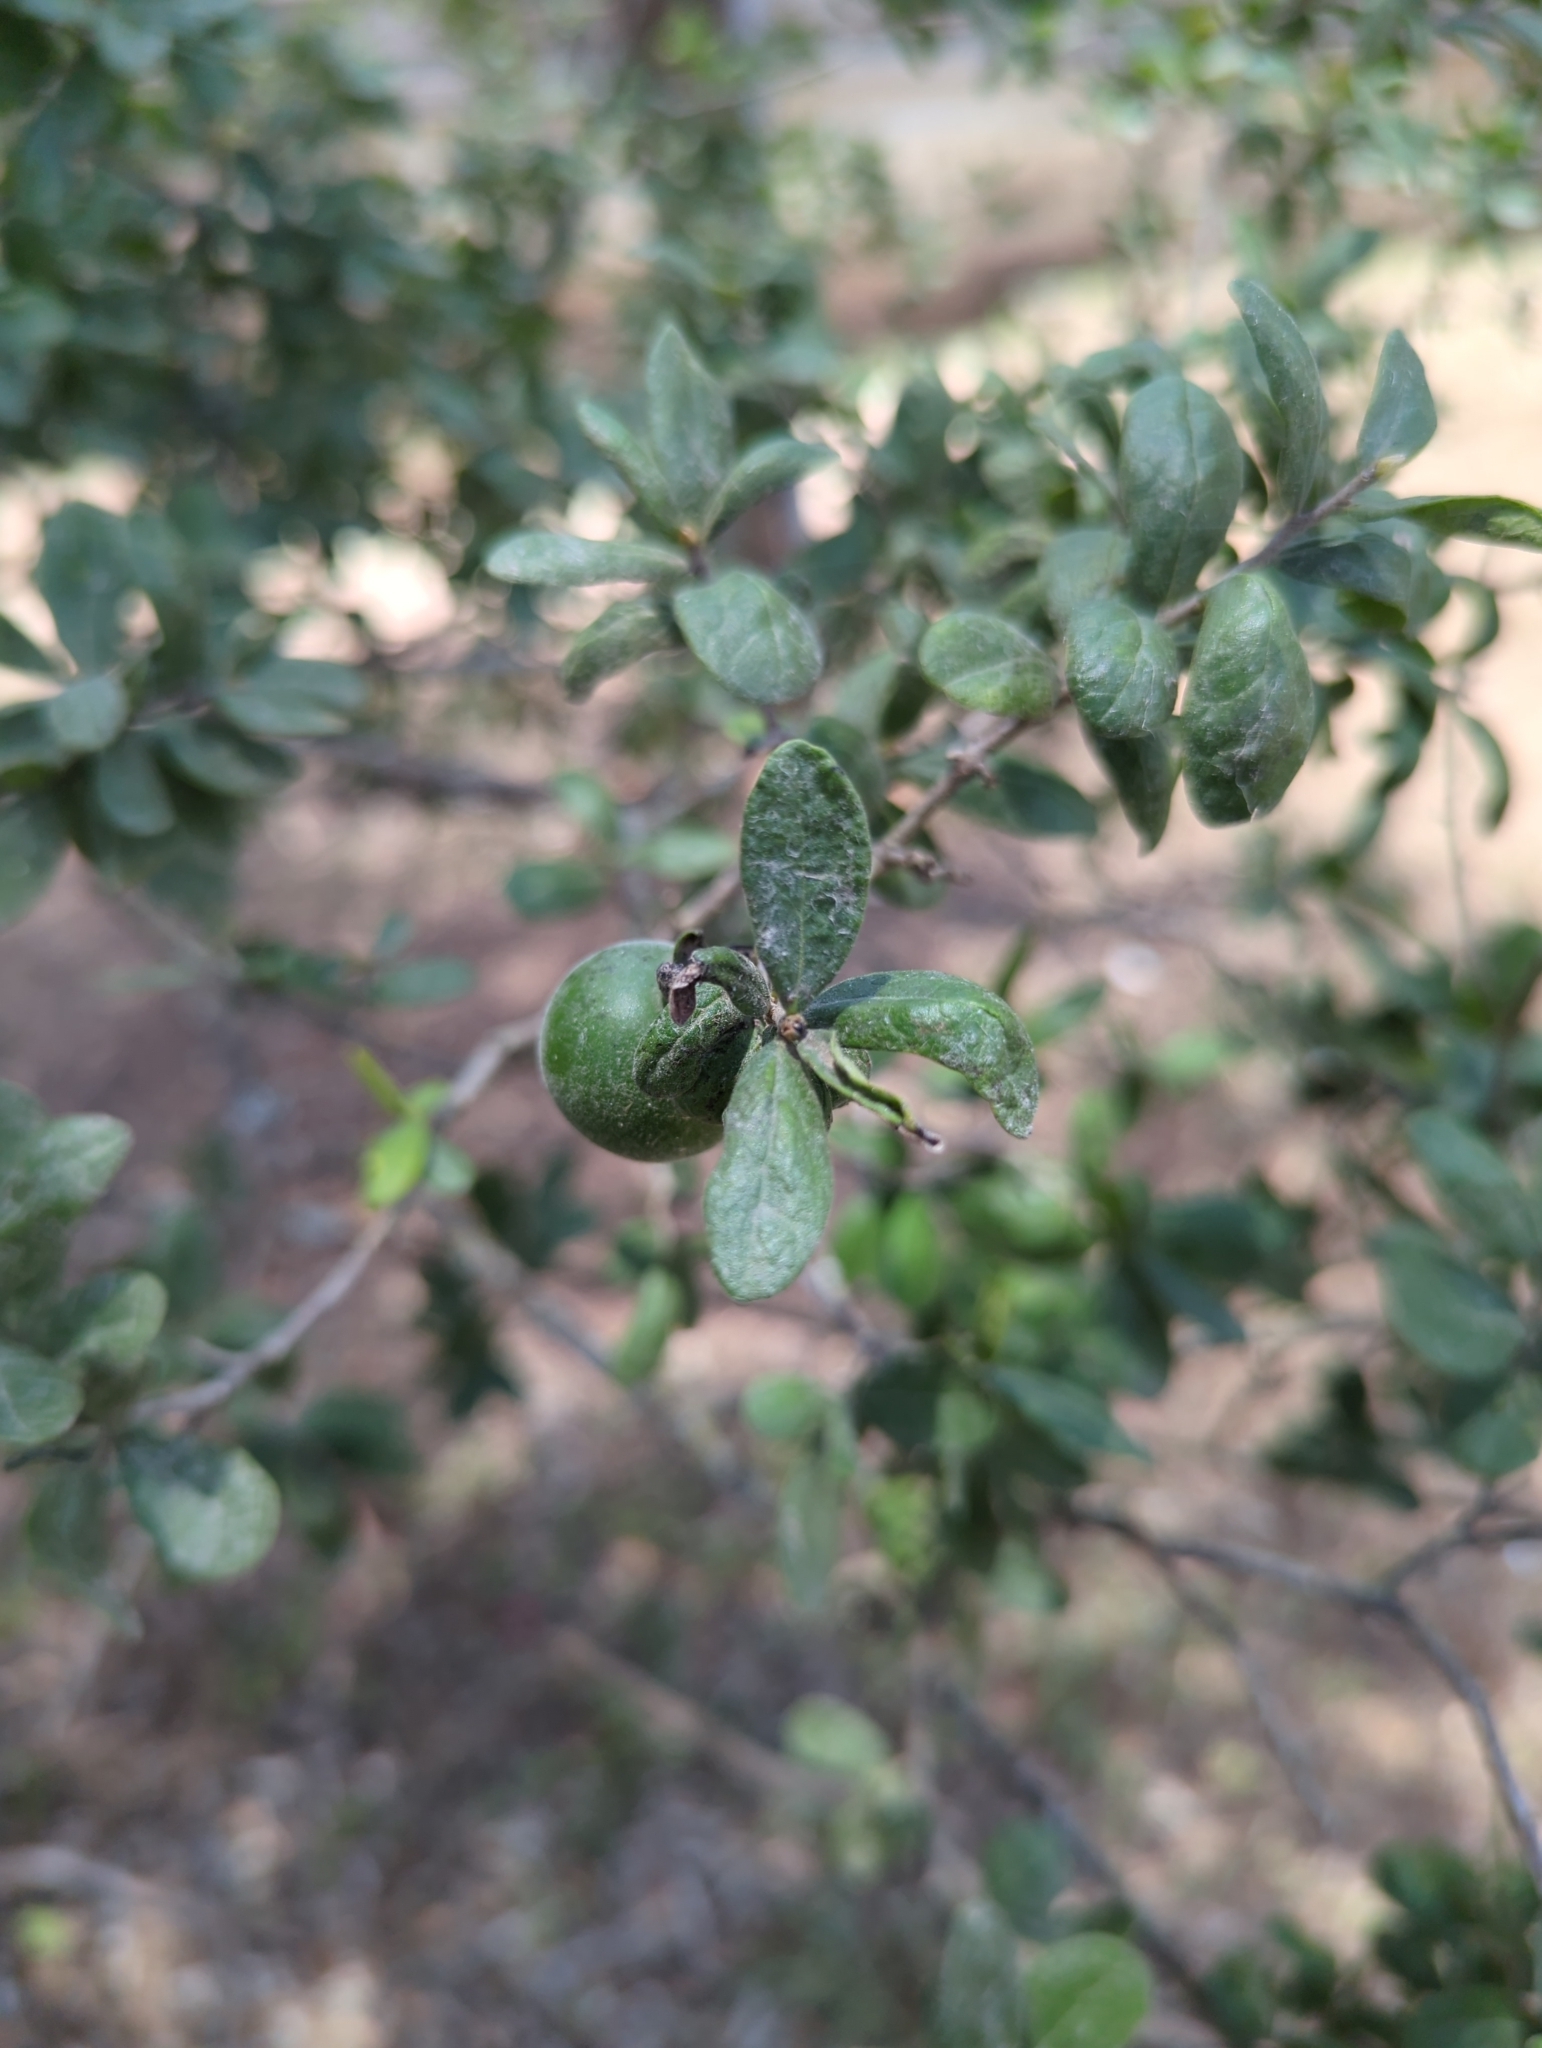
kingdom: Plantae
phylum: Tracheophyta
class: Magnoliopsida
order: Ericales
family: Ebenaceae
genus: Diospyros
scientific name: Diospyros texana
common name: Texas persimmon
